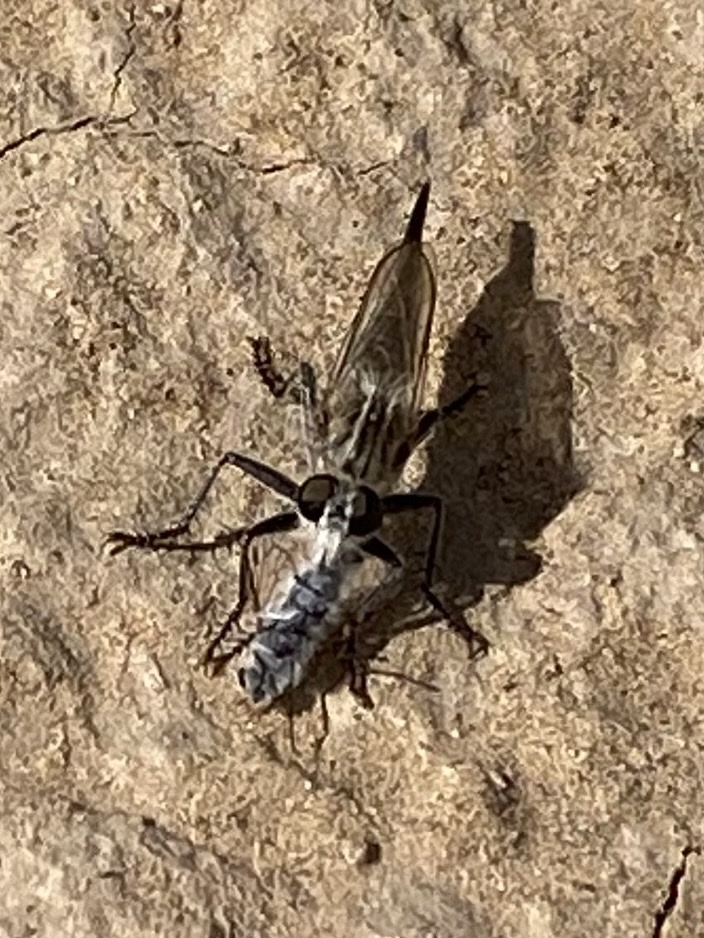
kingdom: Animalia
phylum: Arthropoda
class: Insecta
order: Diptera
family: Asilidae
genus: Efferia
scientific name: Efferia
